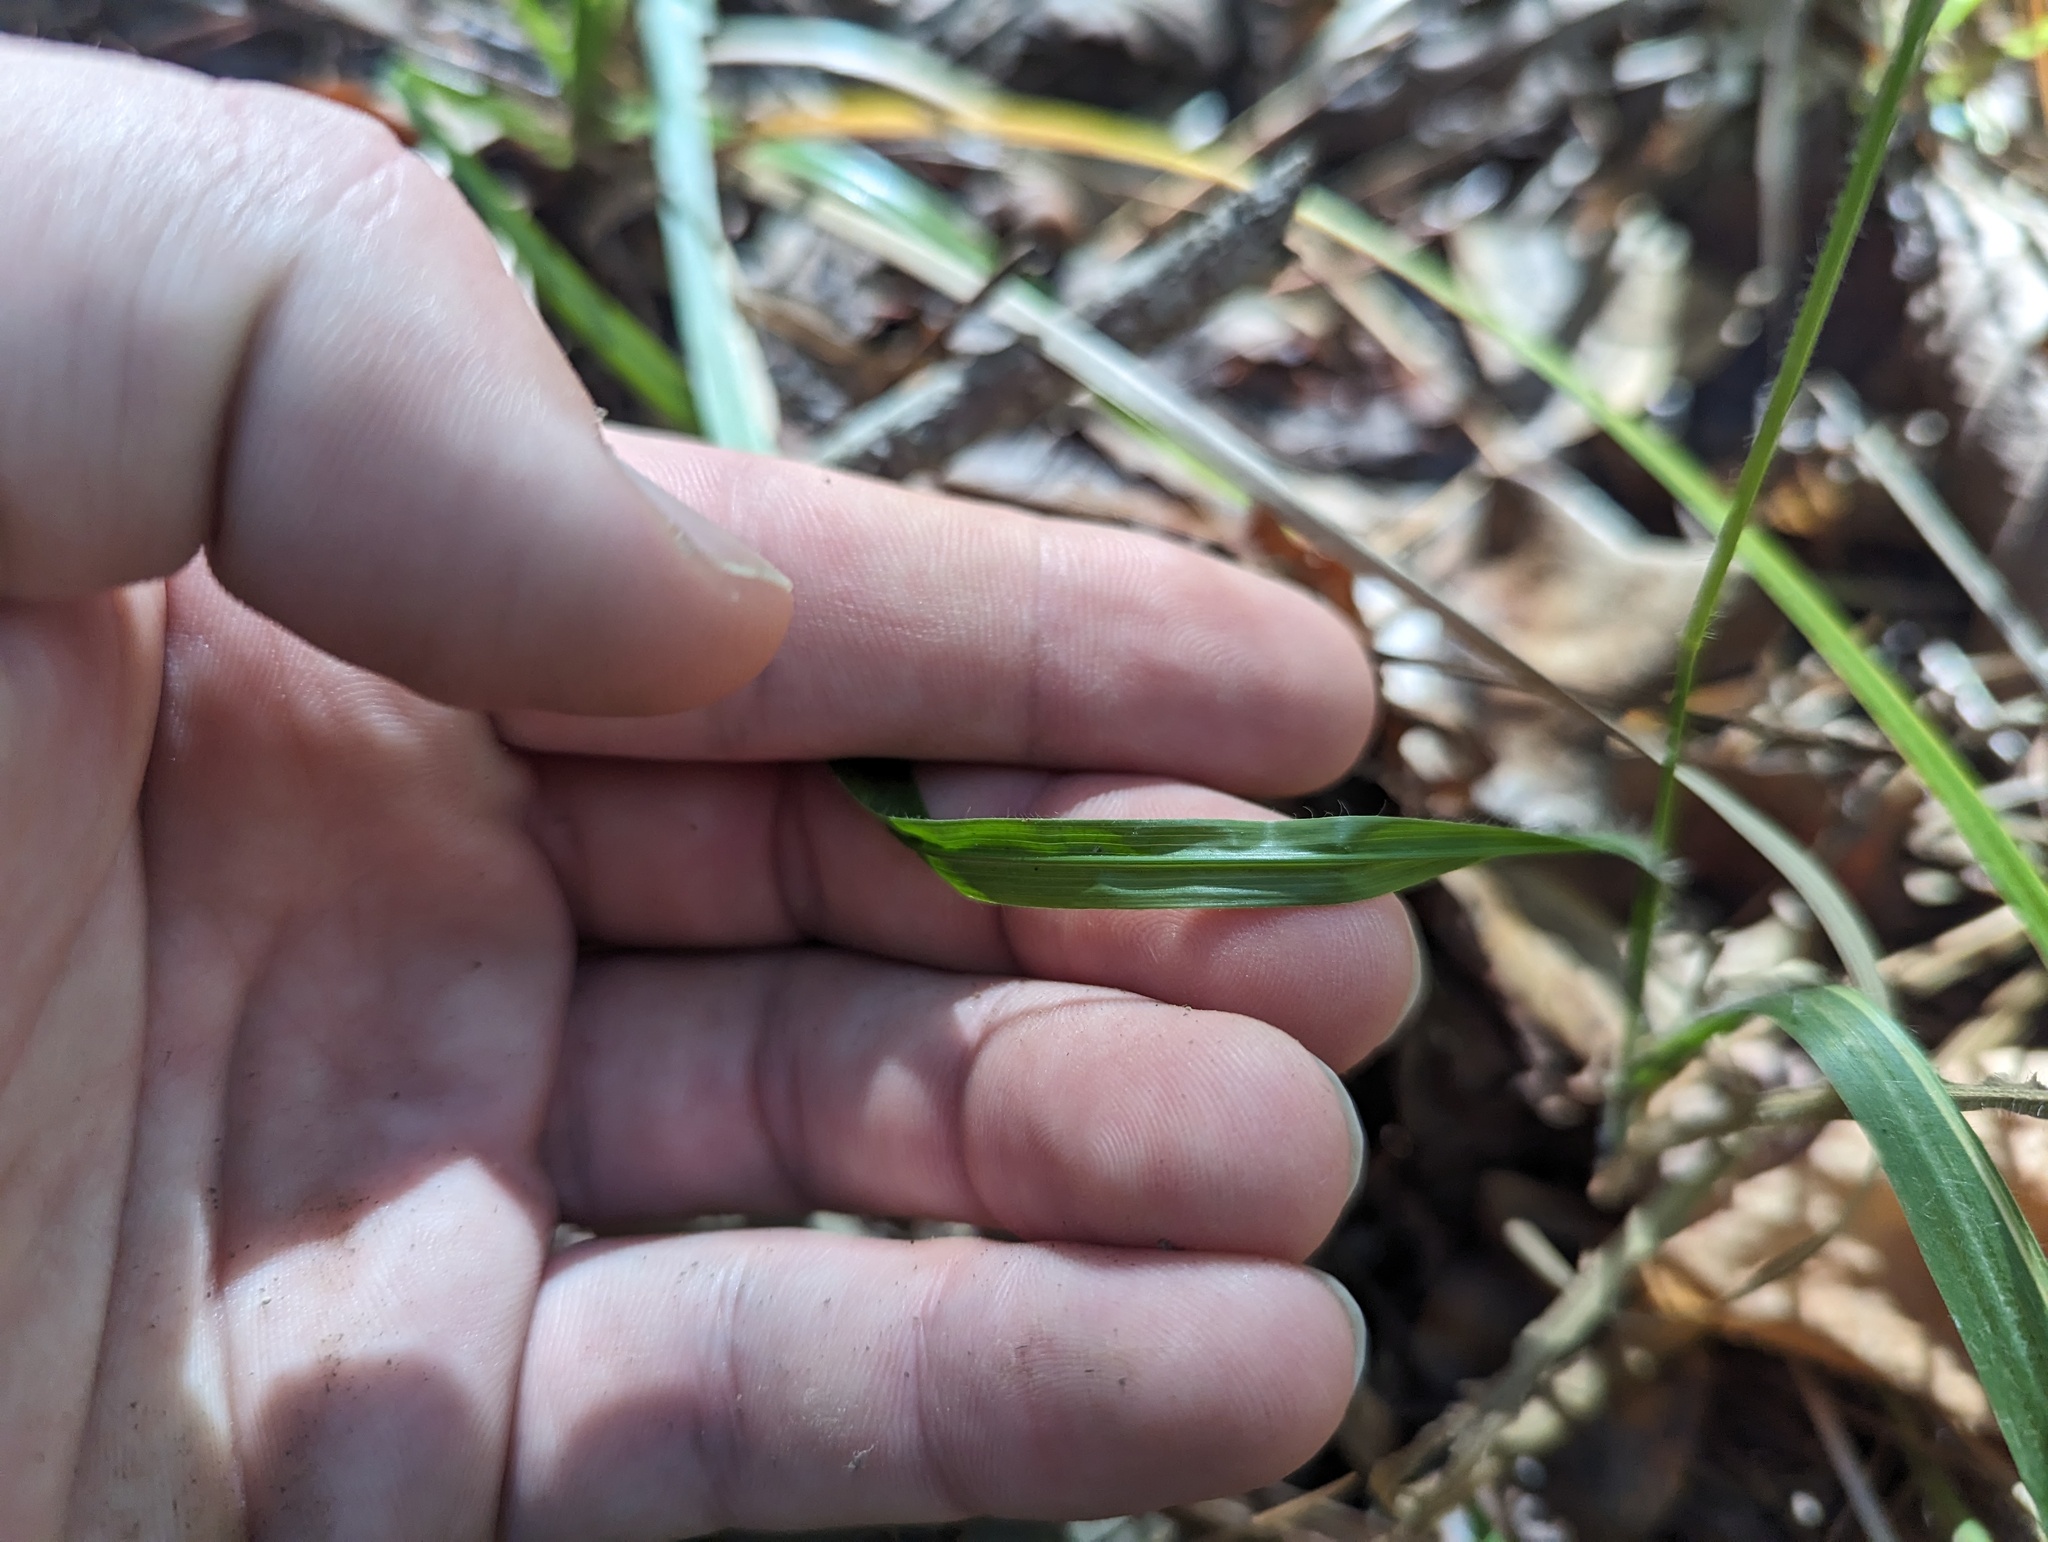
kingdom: Plantae
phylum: Tracheophyta
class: Liliopsida
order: Poales
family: Poaceae
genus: Coleataenia
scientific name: Coleataenia anceps
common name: Beaked panic grass
